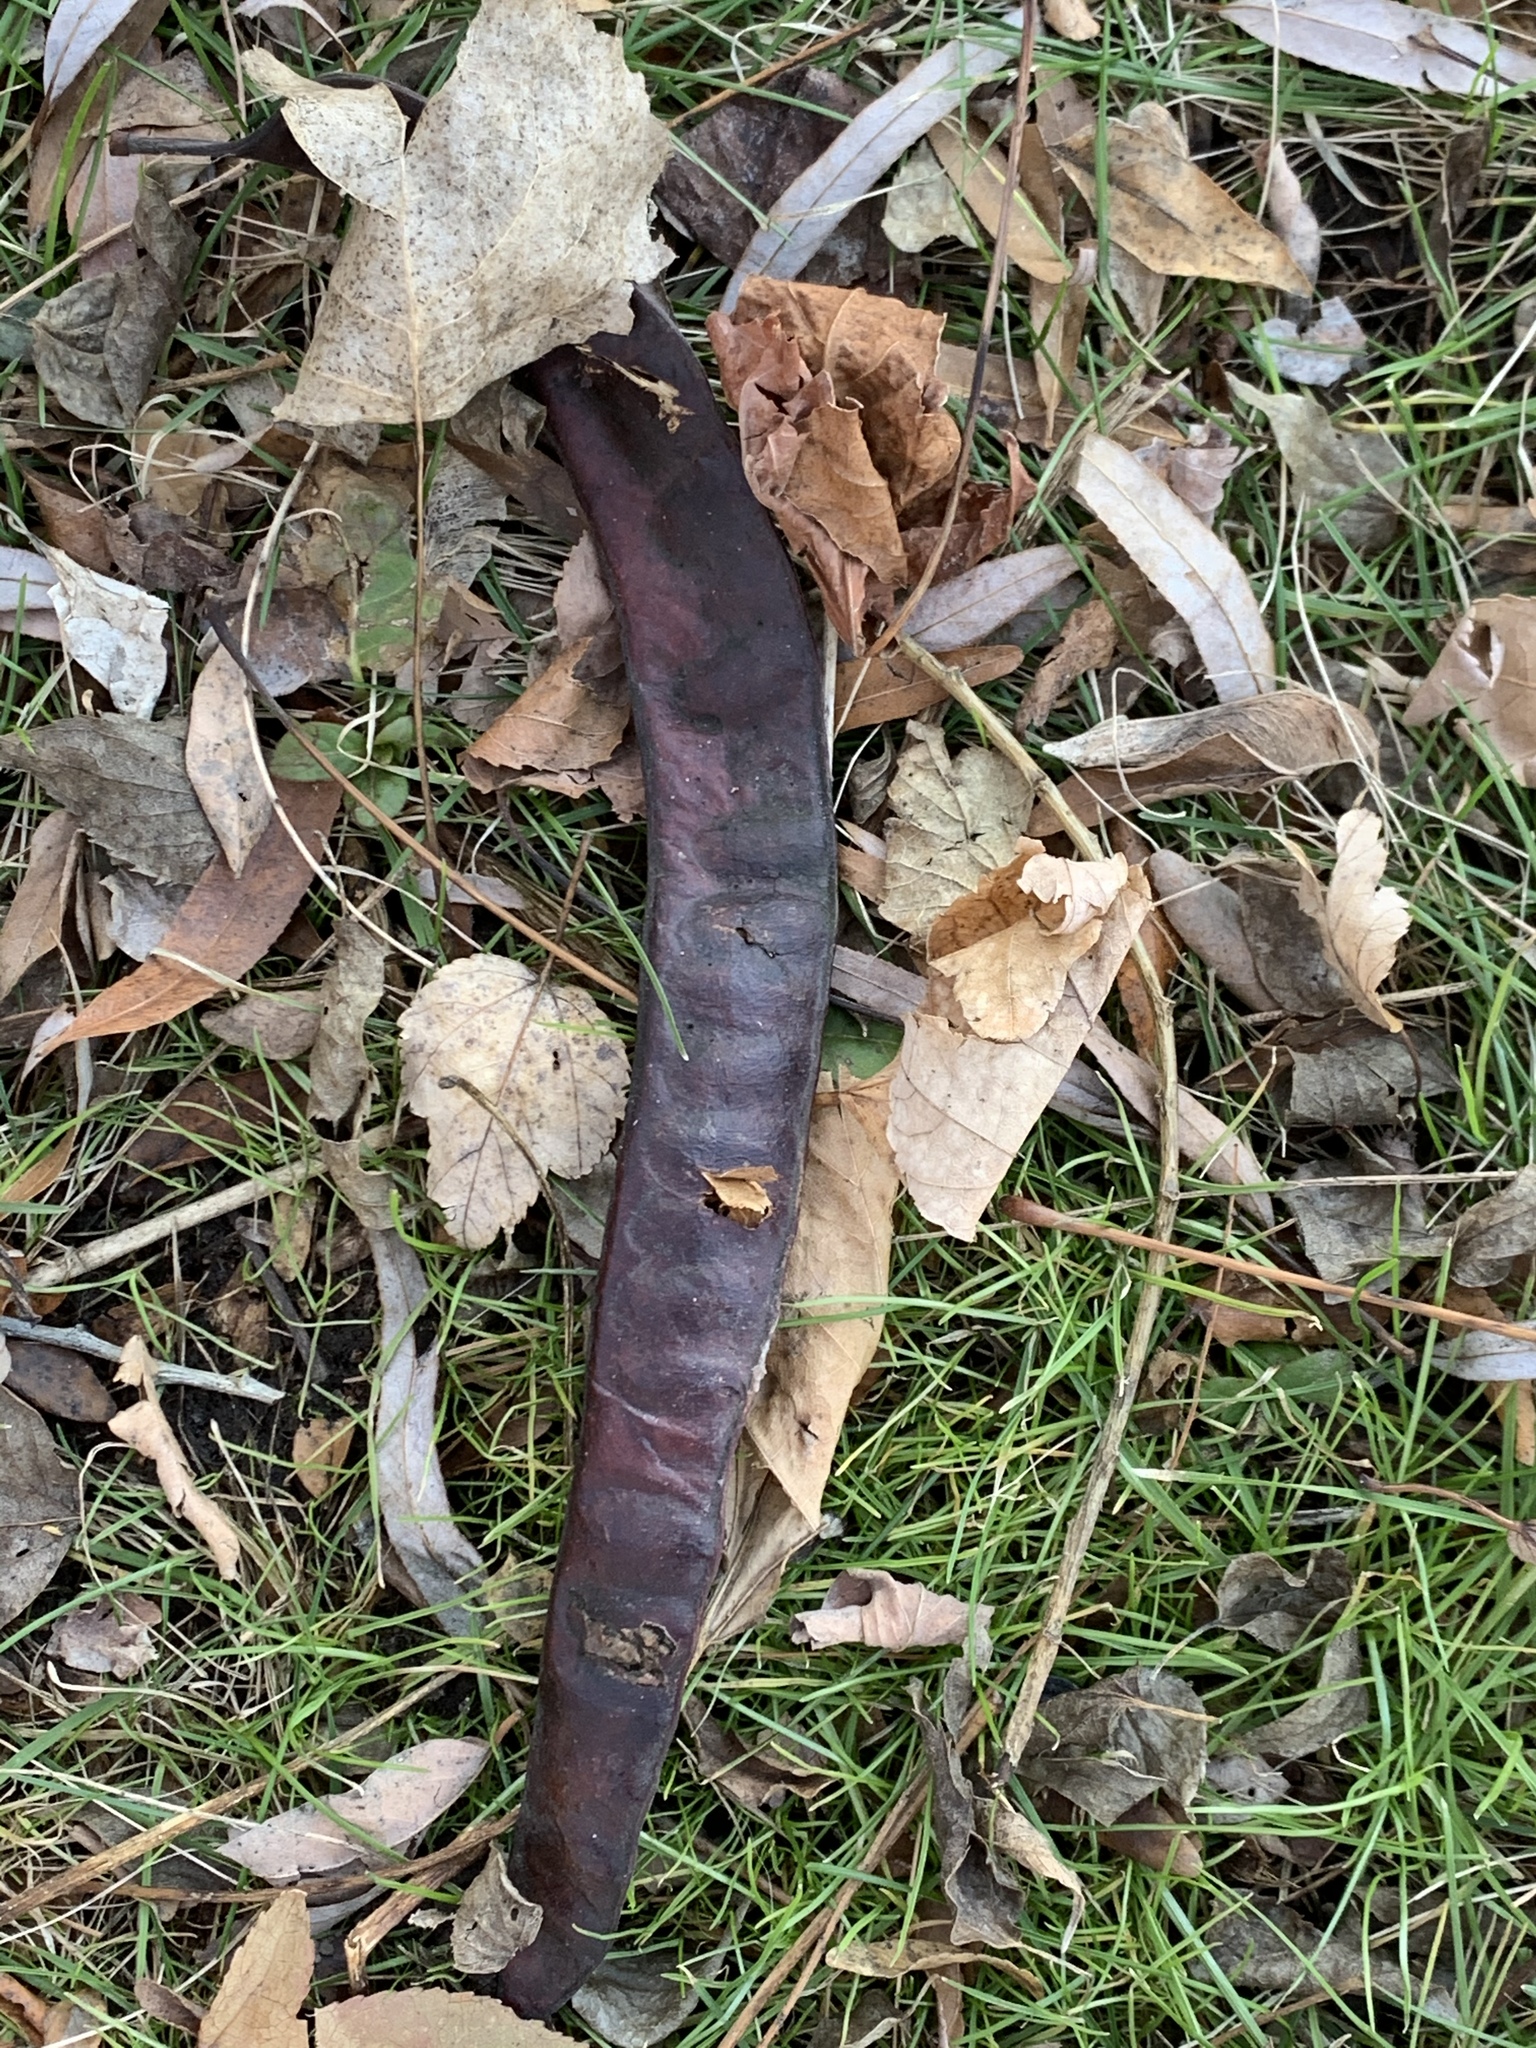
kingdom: Plantae
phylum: Tracheophyta
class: Magnoliopsida
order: Fabales
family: Fabaceae
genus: Gleditsia
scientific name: Gleditsia triacanthos
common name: Common honeylocust
